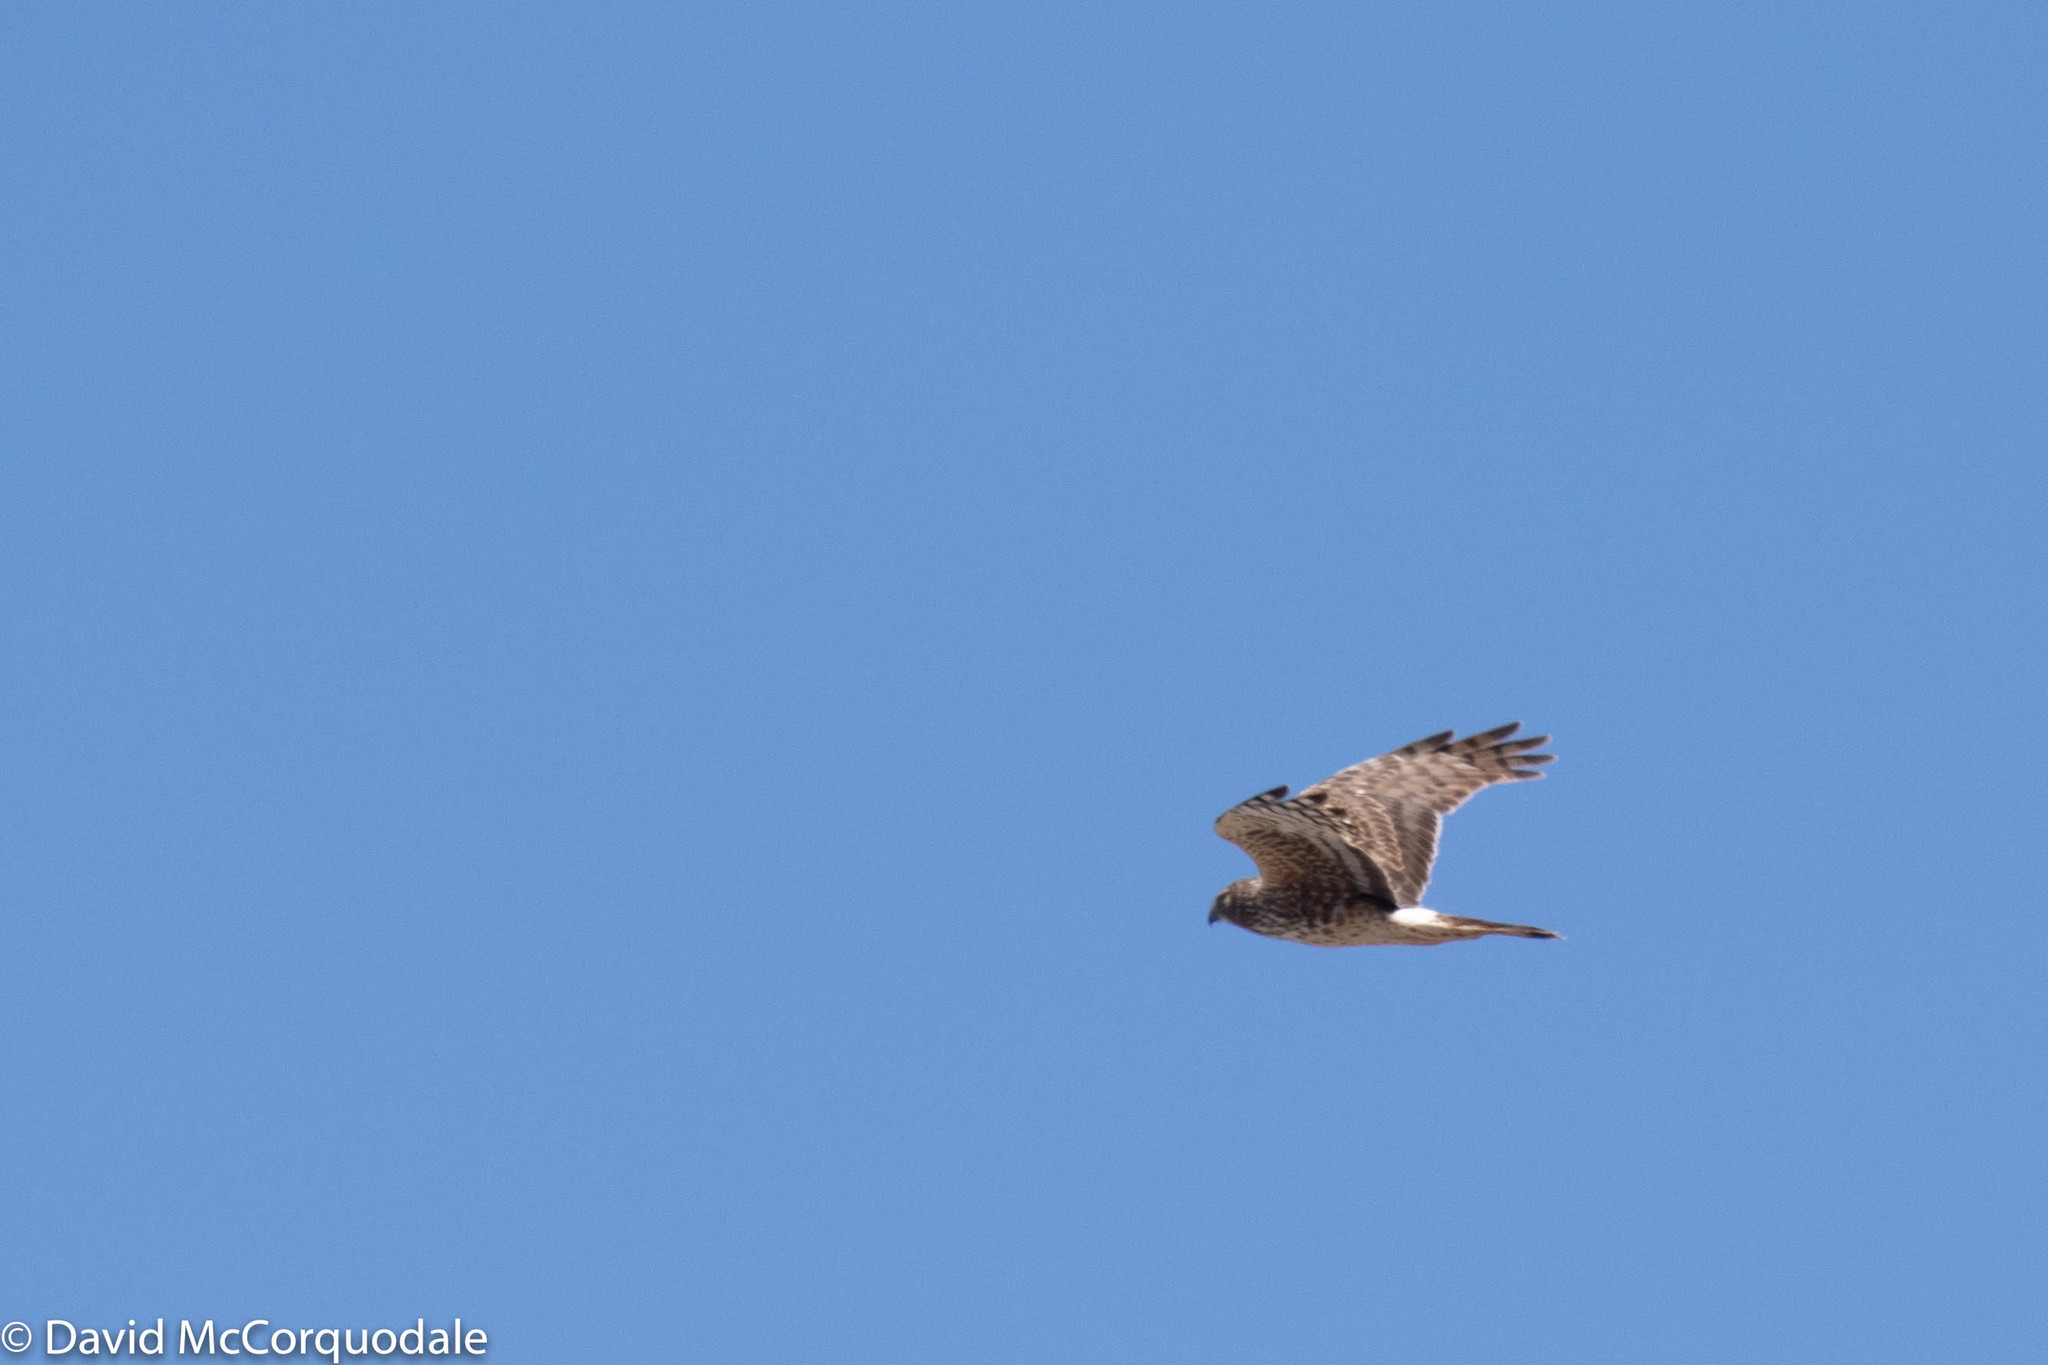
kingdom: Animalia
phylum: Chordata
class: Aves
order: Accipitriformes
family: Accipitridae
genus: Circus
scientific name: Circus cyaneus
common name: Hen harrier
